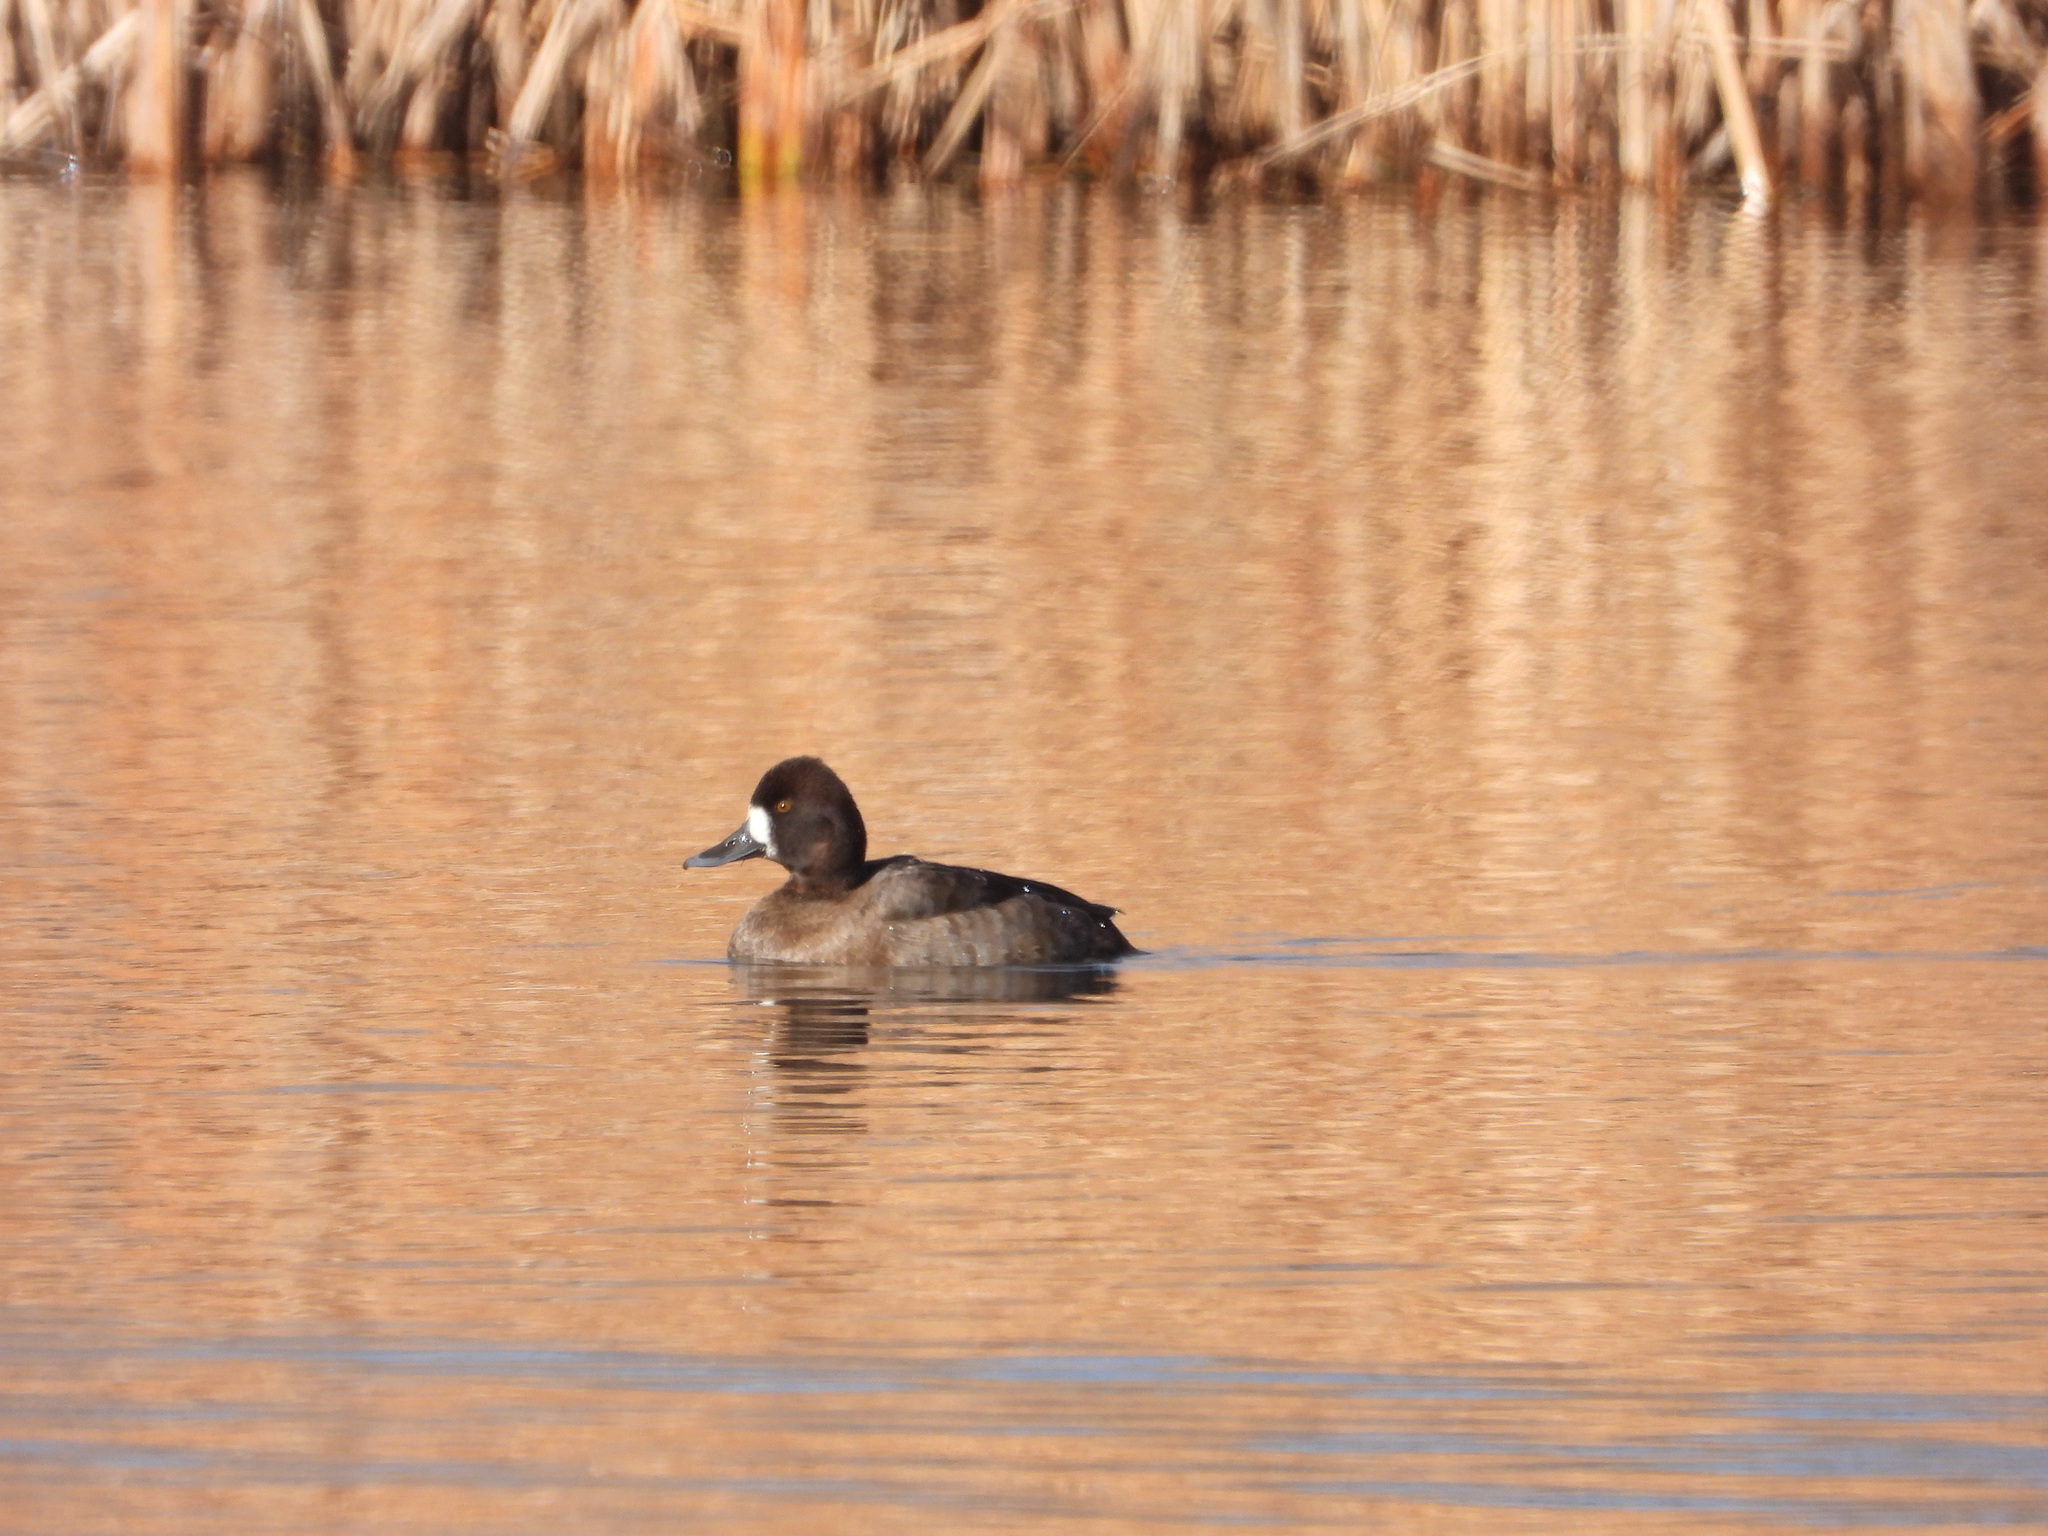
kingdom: Animalia
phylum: Chordata
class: Aves
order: Anseriformes
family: Anatidae
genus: Aythya
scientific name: Aythya affinis
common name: Lesser scaup
